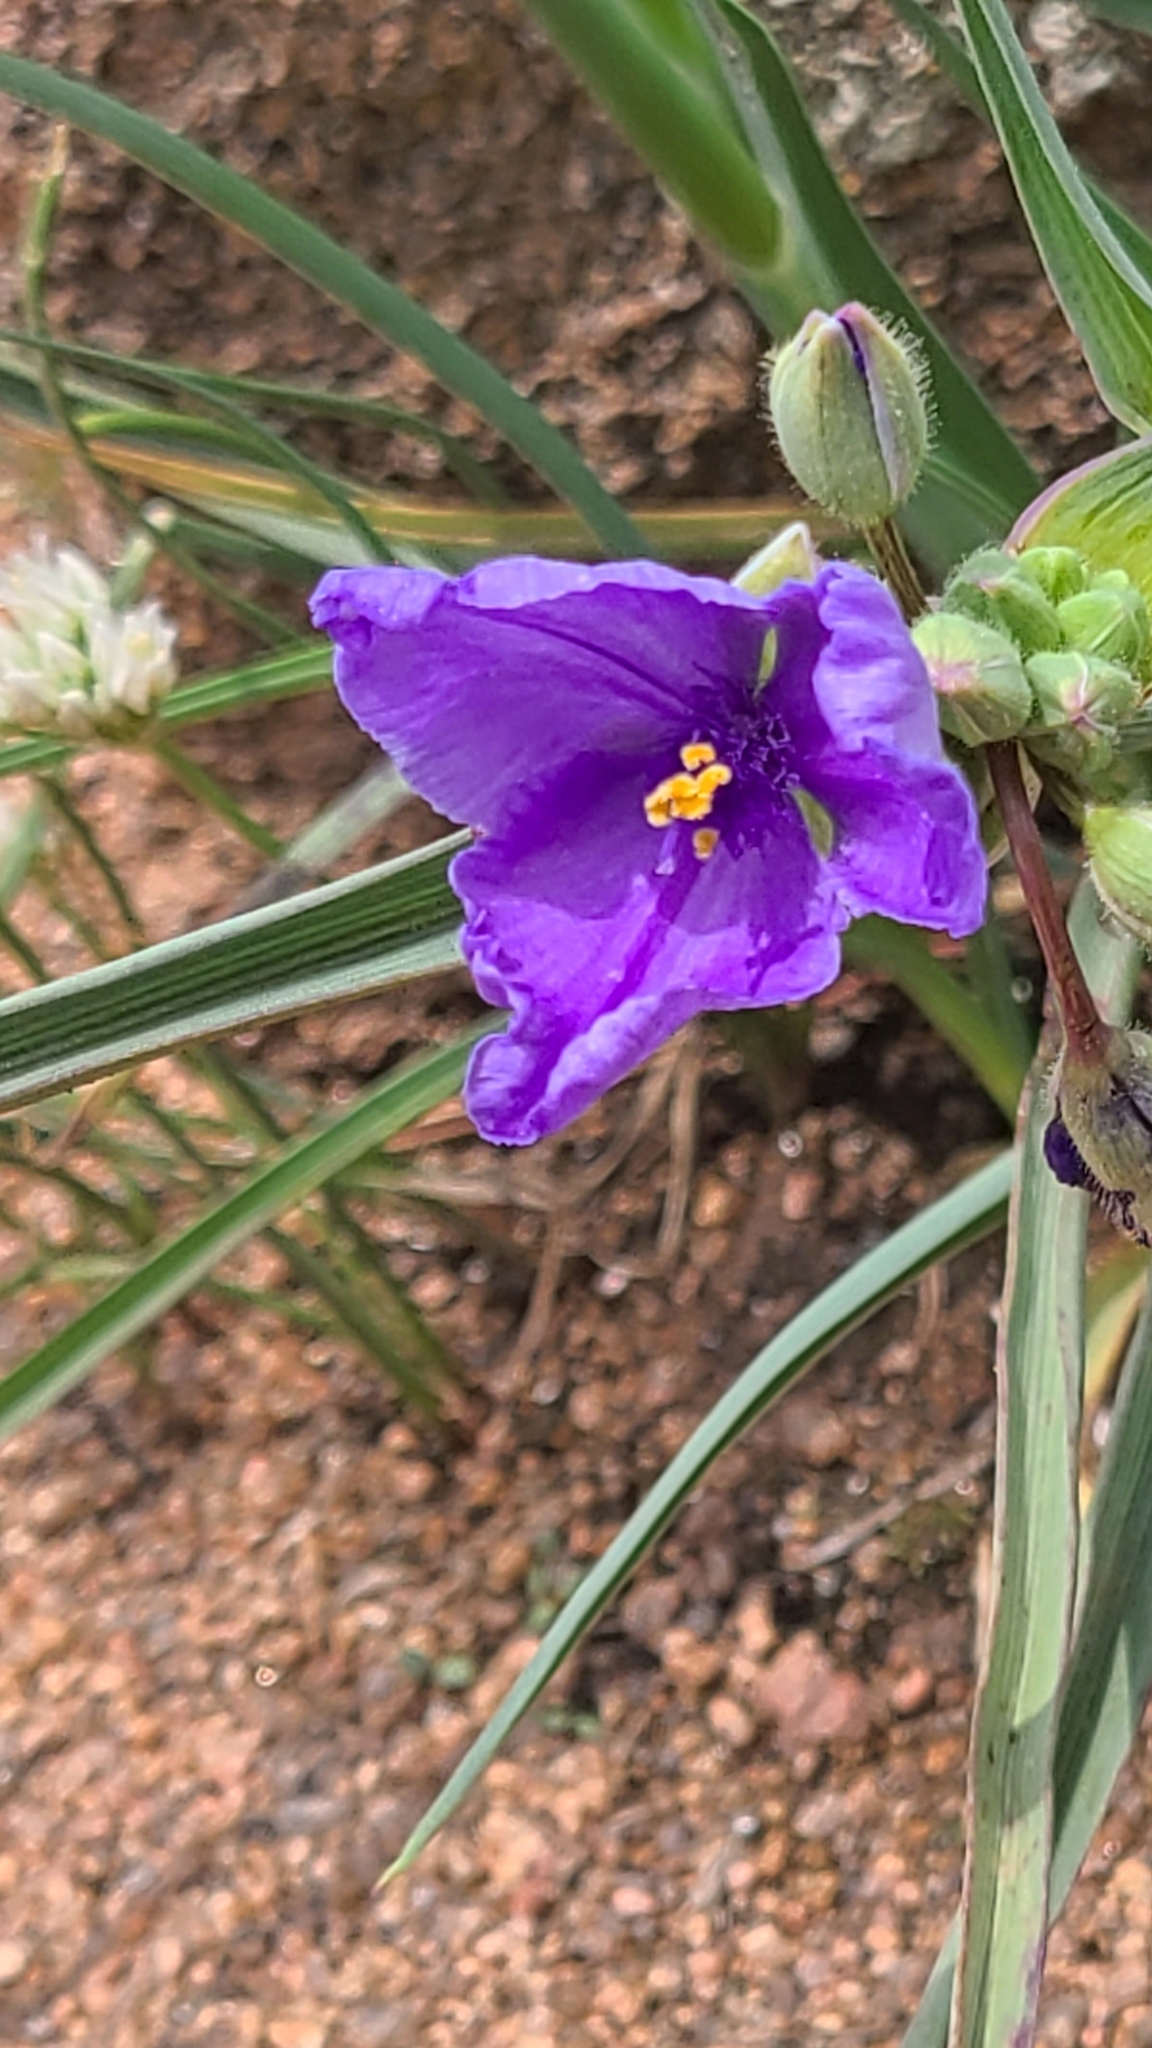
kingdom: Plantae
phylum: Tracheophyta
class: Liliopsida
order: Commelinales
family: Commelinaceae
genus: Tradescantia
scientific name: Tradescantia occidentalis
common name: Prairie spiderwort
